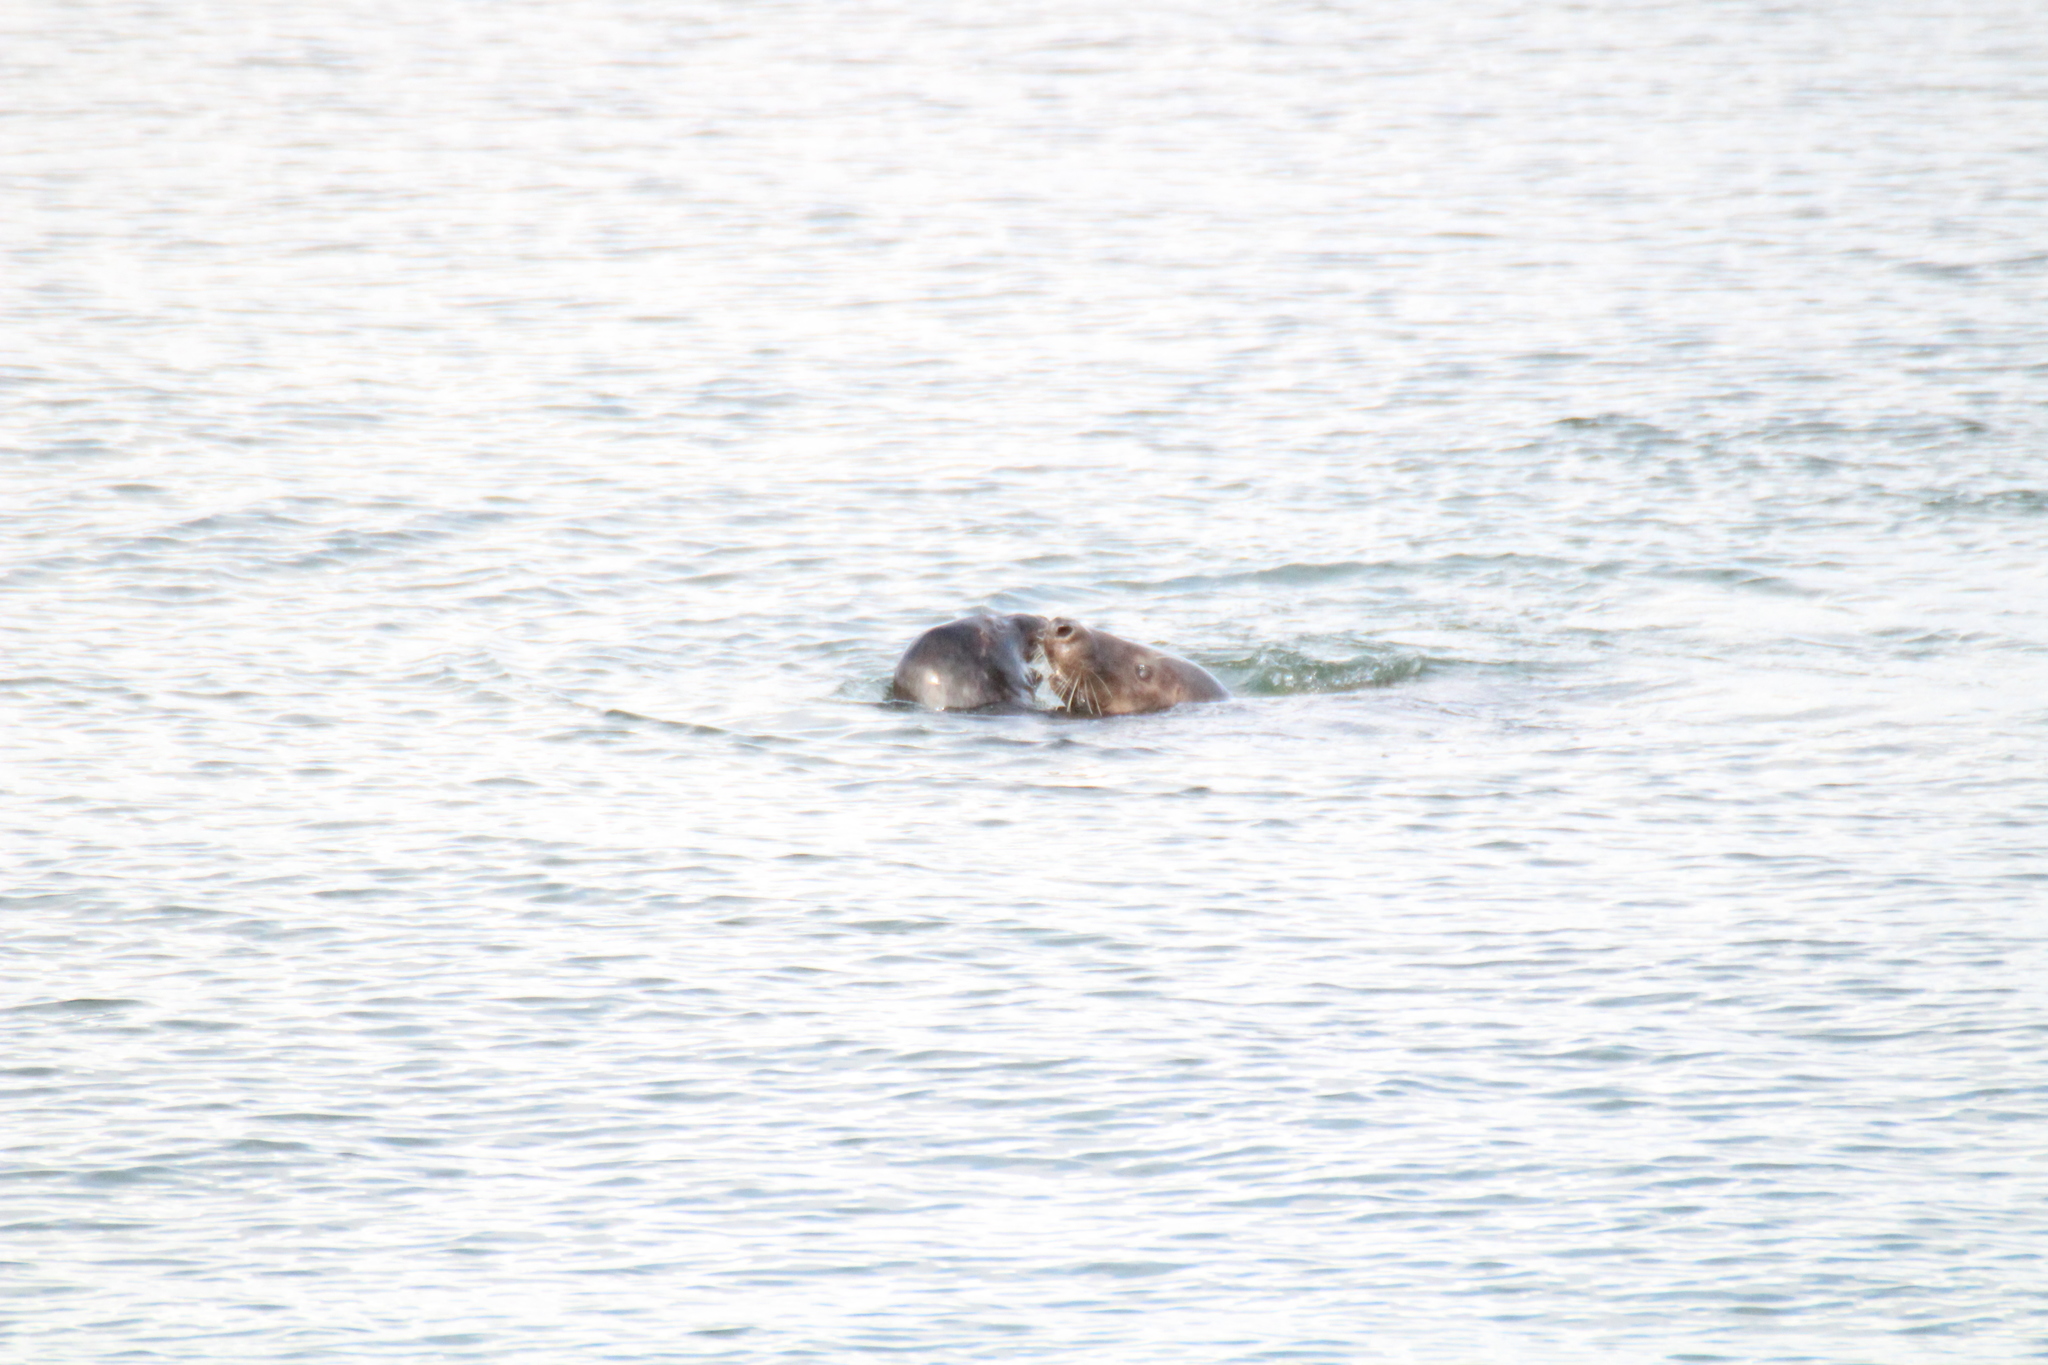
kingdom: Animalia
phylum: Chordata
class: Mammalia
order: Carnivora
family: Phocidae
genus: Halichoerus
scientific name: Halichoerus grypus
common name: Grey seal
